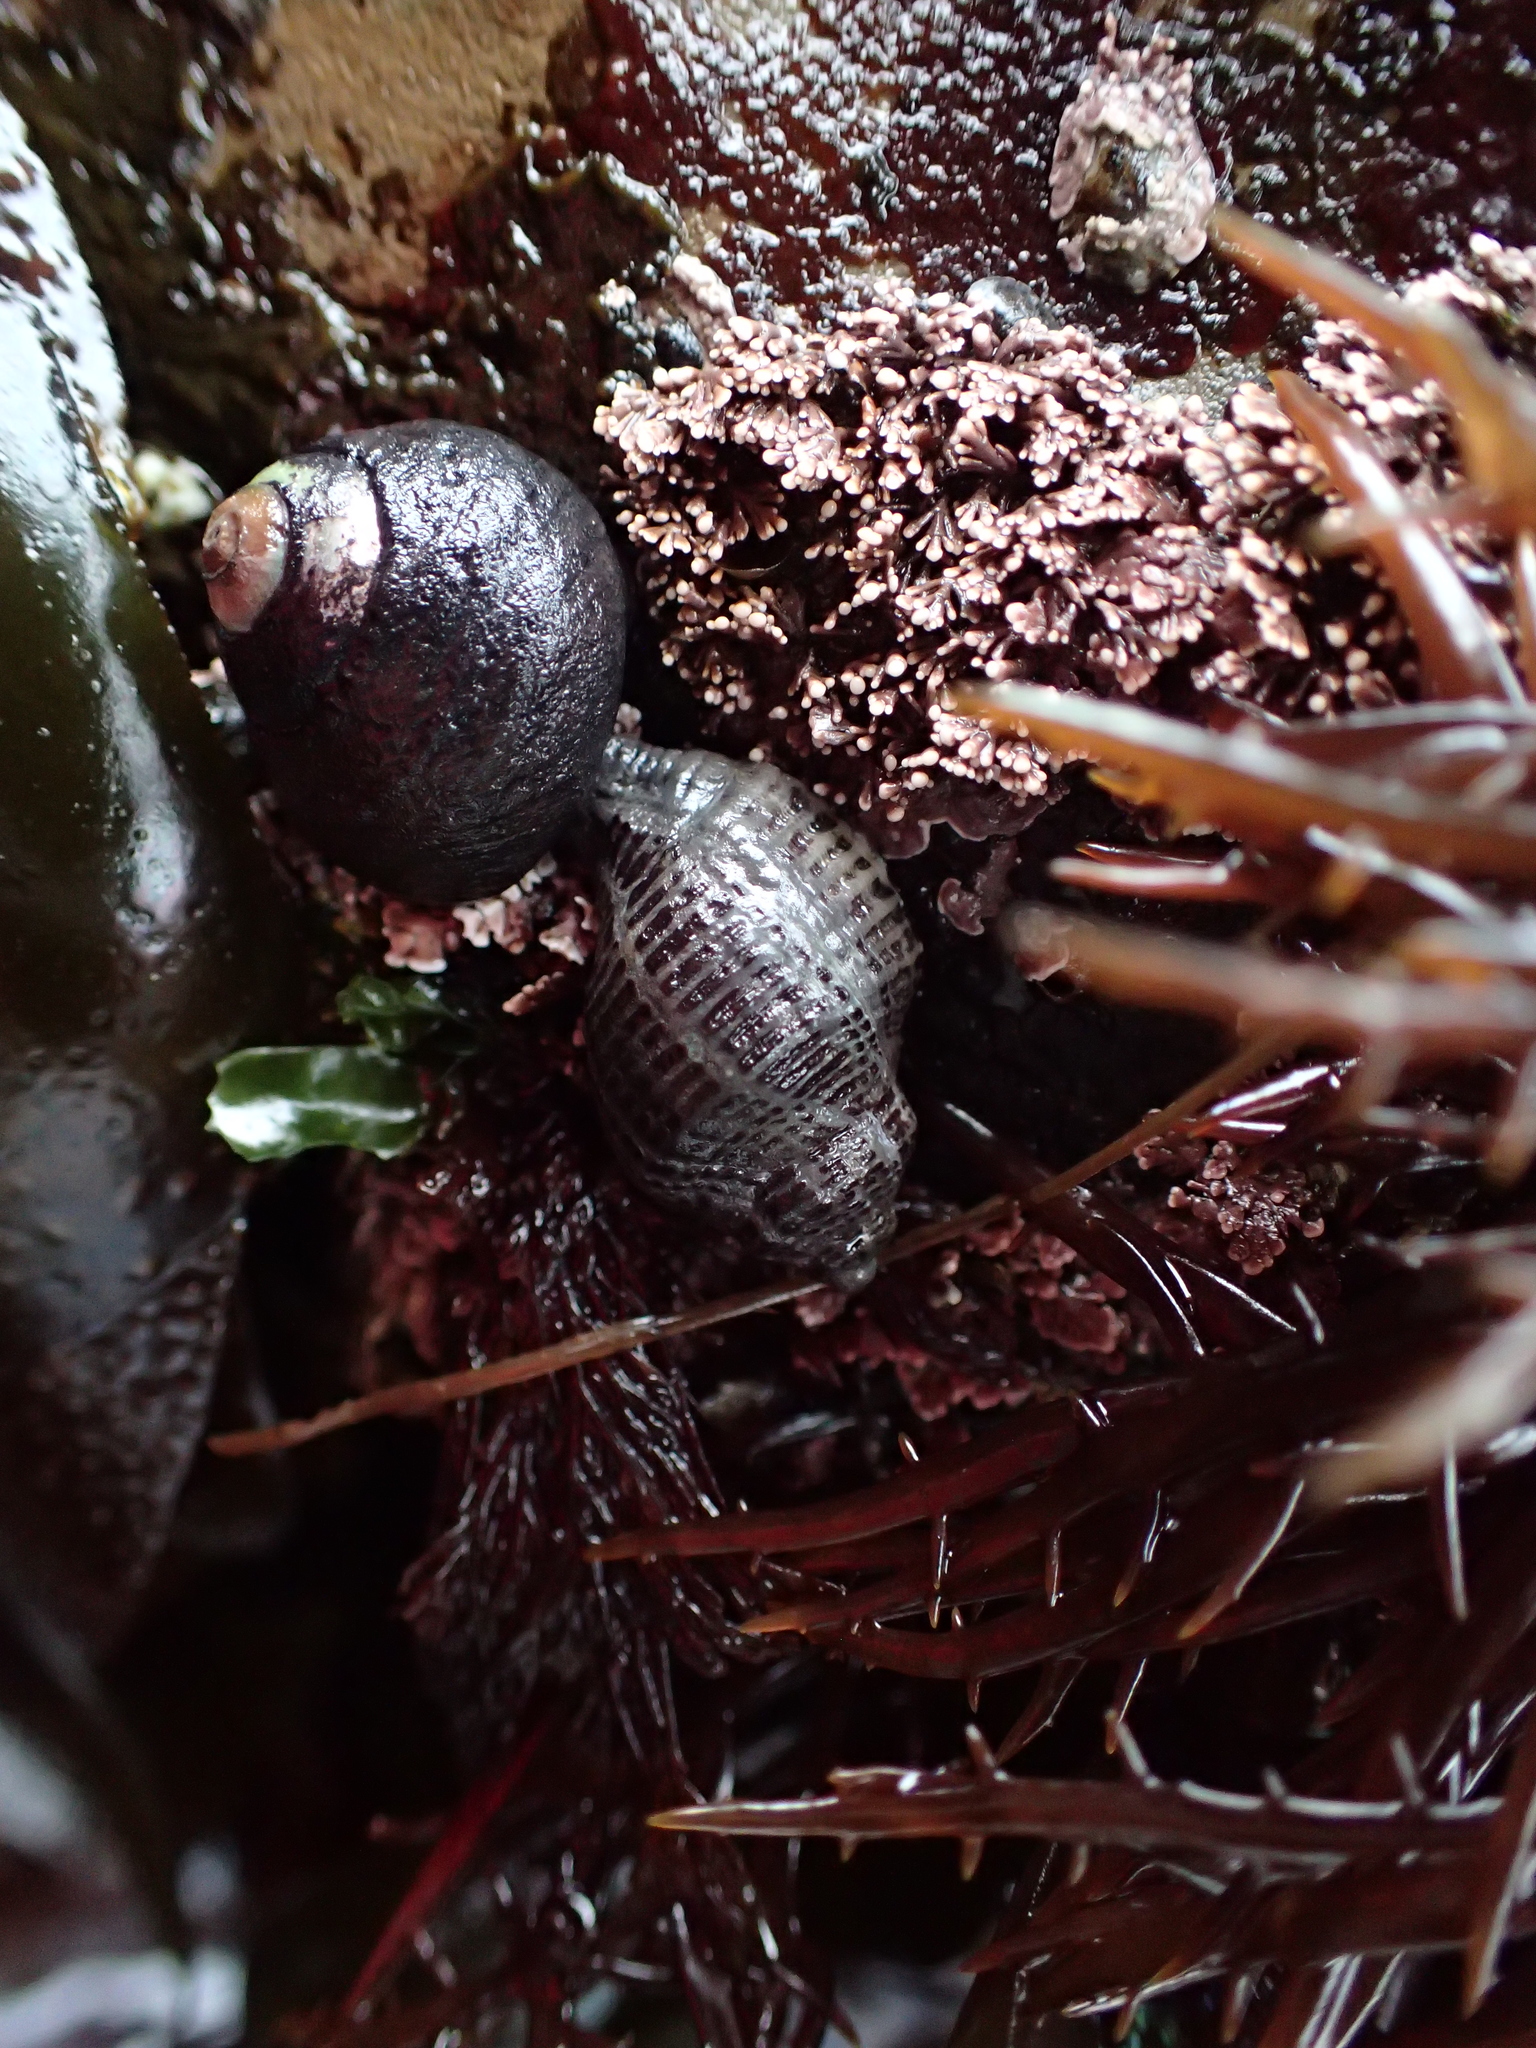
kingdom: Animalia
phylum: Mollusca
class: Gastropoda
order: Neogastropoda
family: Muricidae
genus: Acanthinucella
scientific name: Acanthinucella spirata
